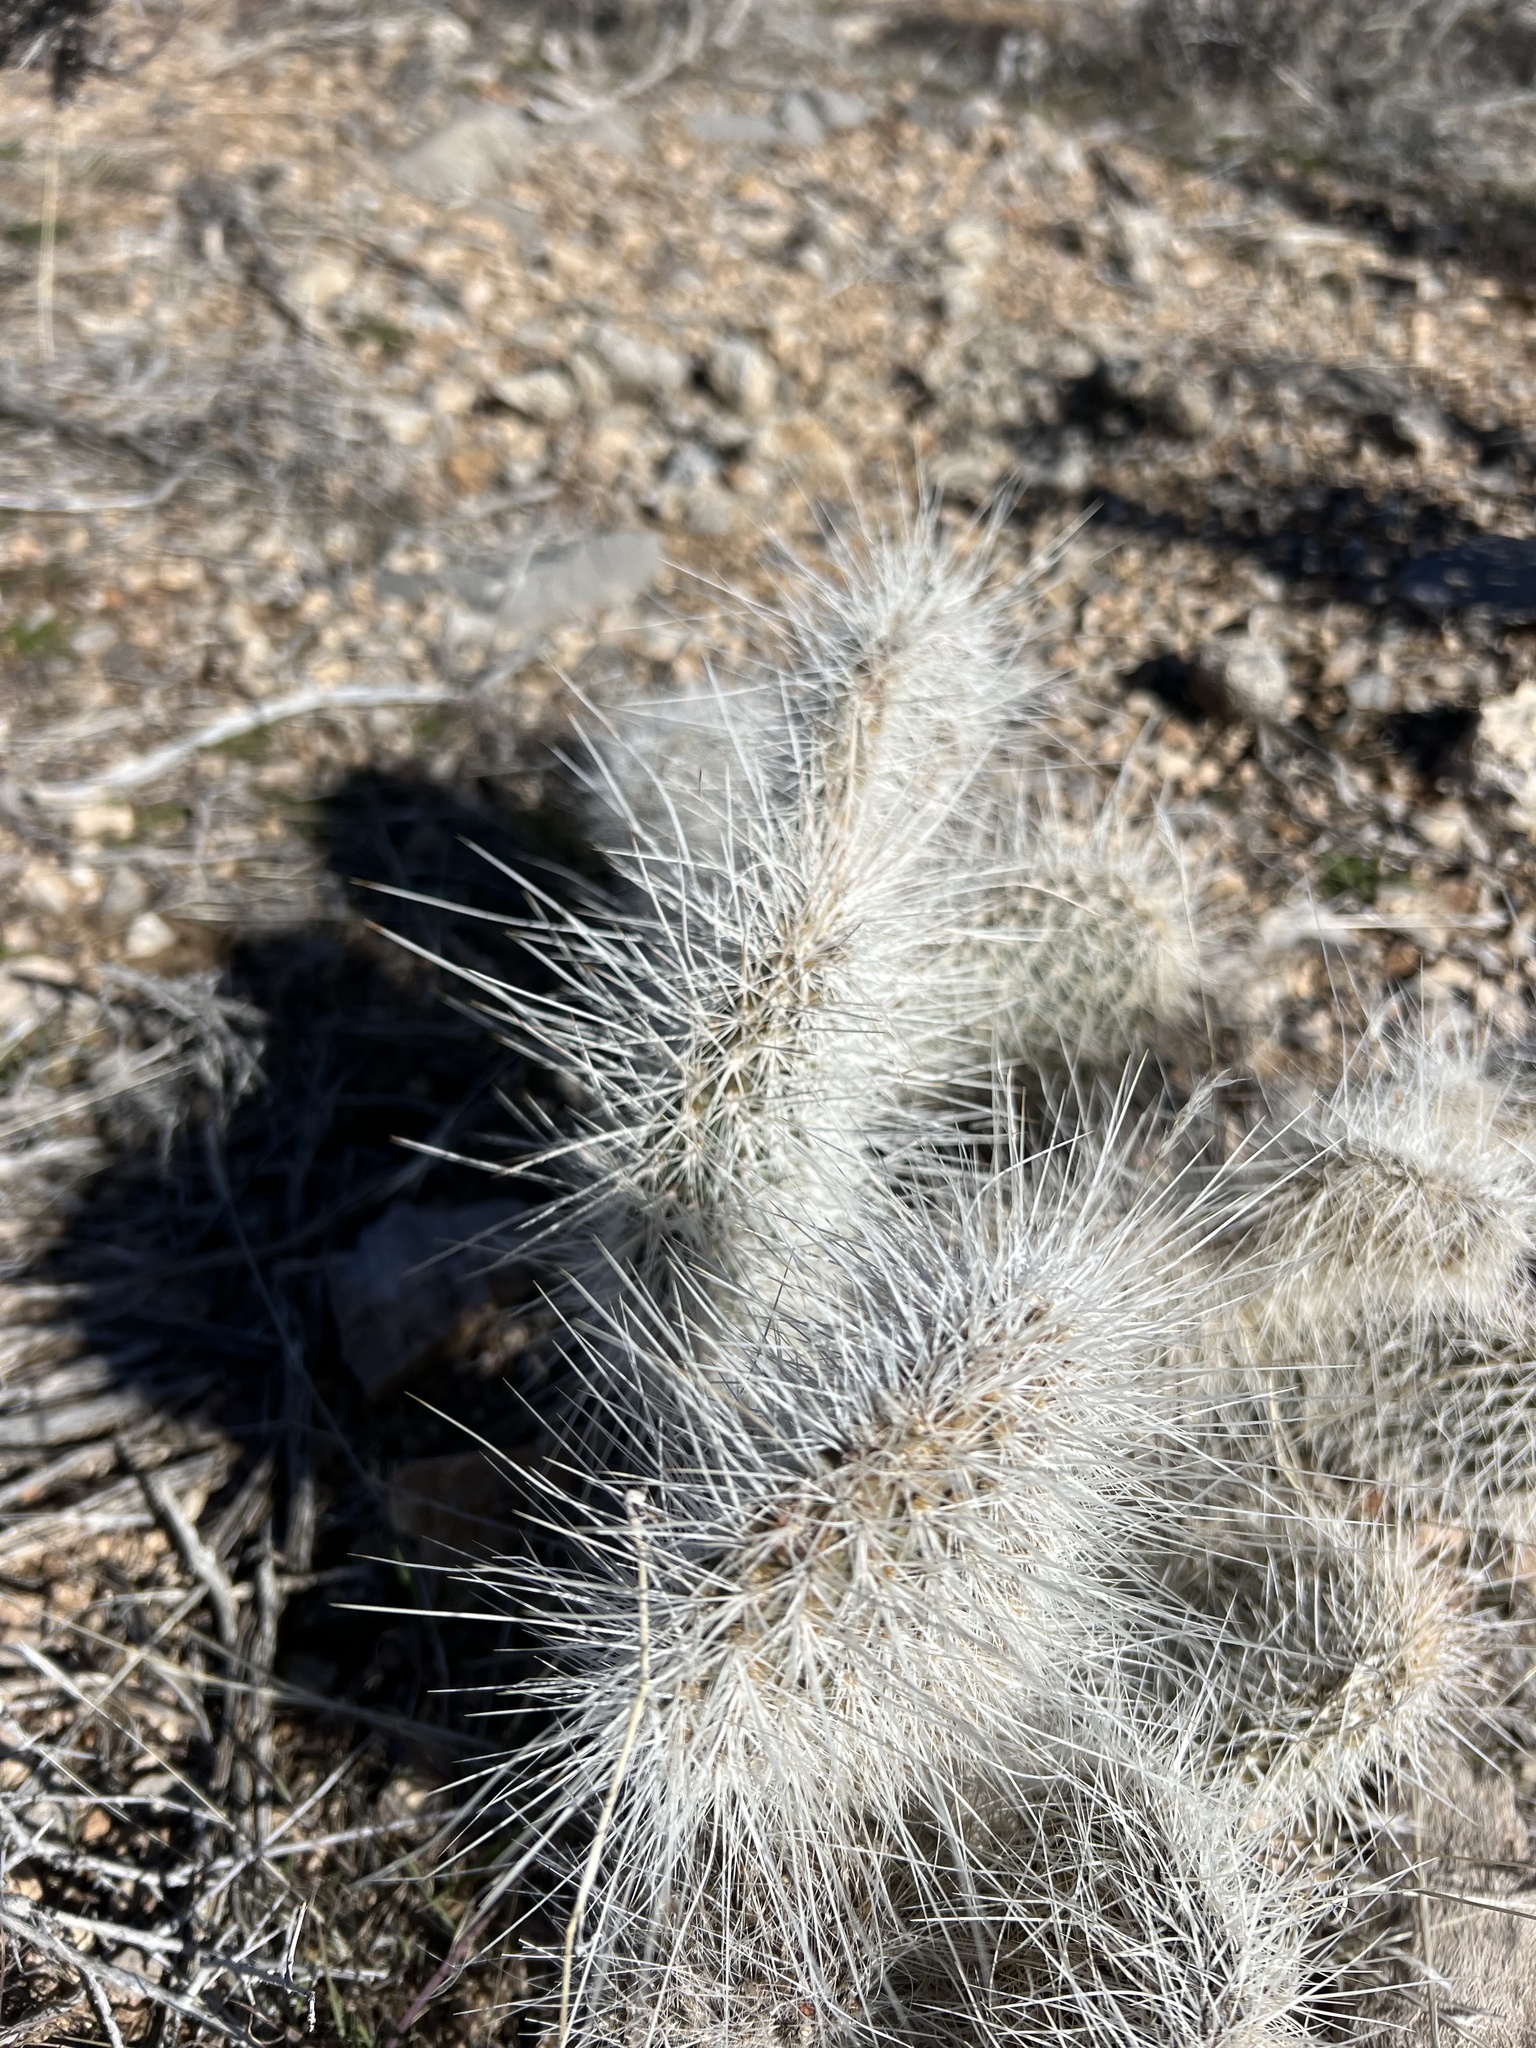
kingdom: Plantae
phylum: Tracheophyta
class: Magnoliopsida
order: Caryophyllales
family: Cactaceae
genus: Opuntia
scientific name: Opuntia polyacantha
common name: Plains prickly-pear
